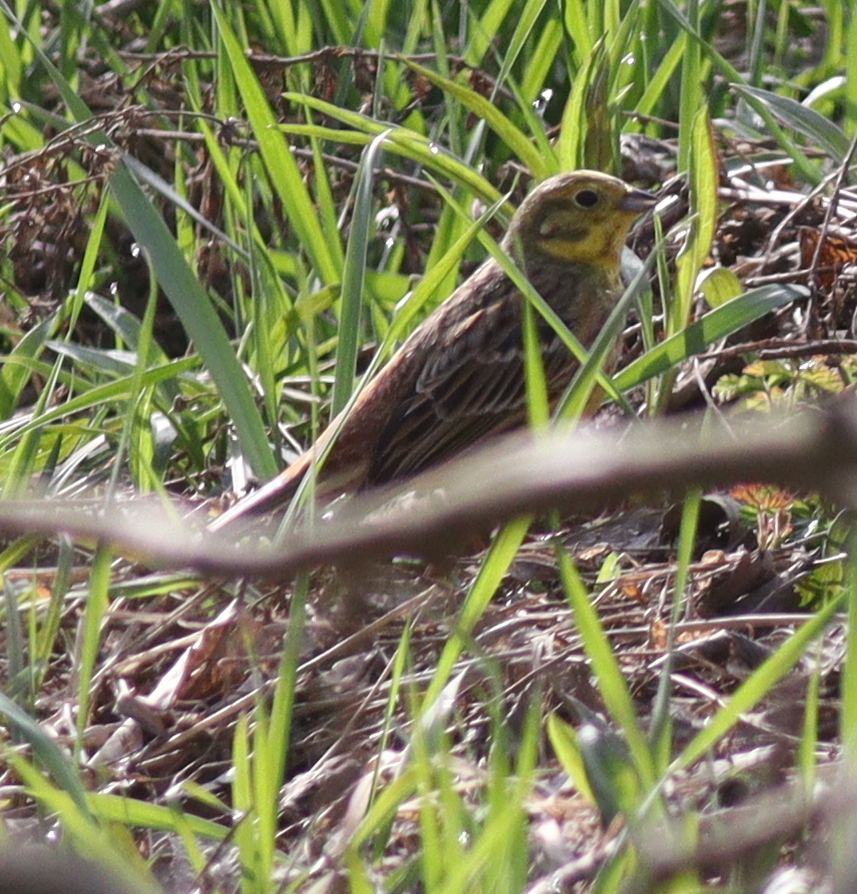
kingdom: Animalia
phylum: Chordata
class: Aves
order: Passeriformes
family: Emberizidae
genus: Emberiza
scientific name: Emberiza citrinella
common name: Yellowhammer
